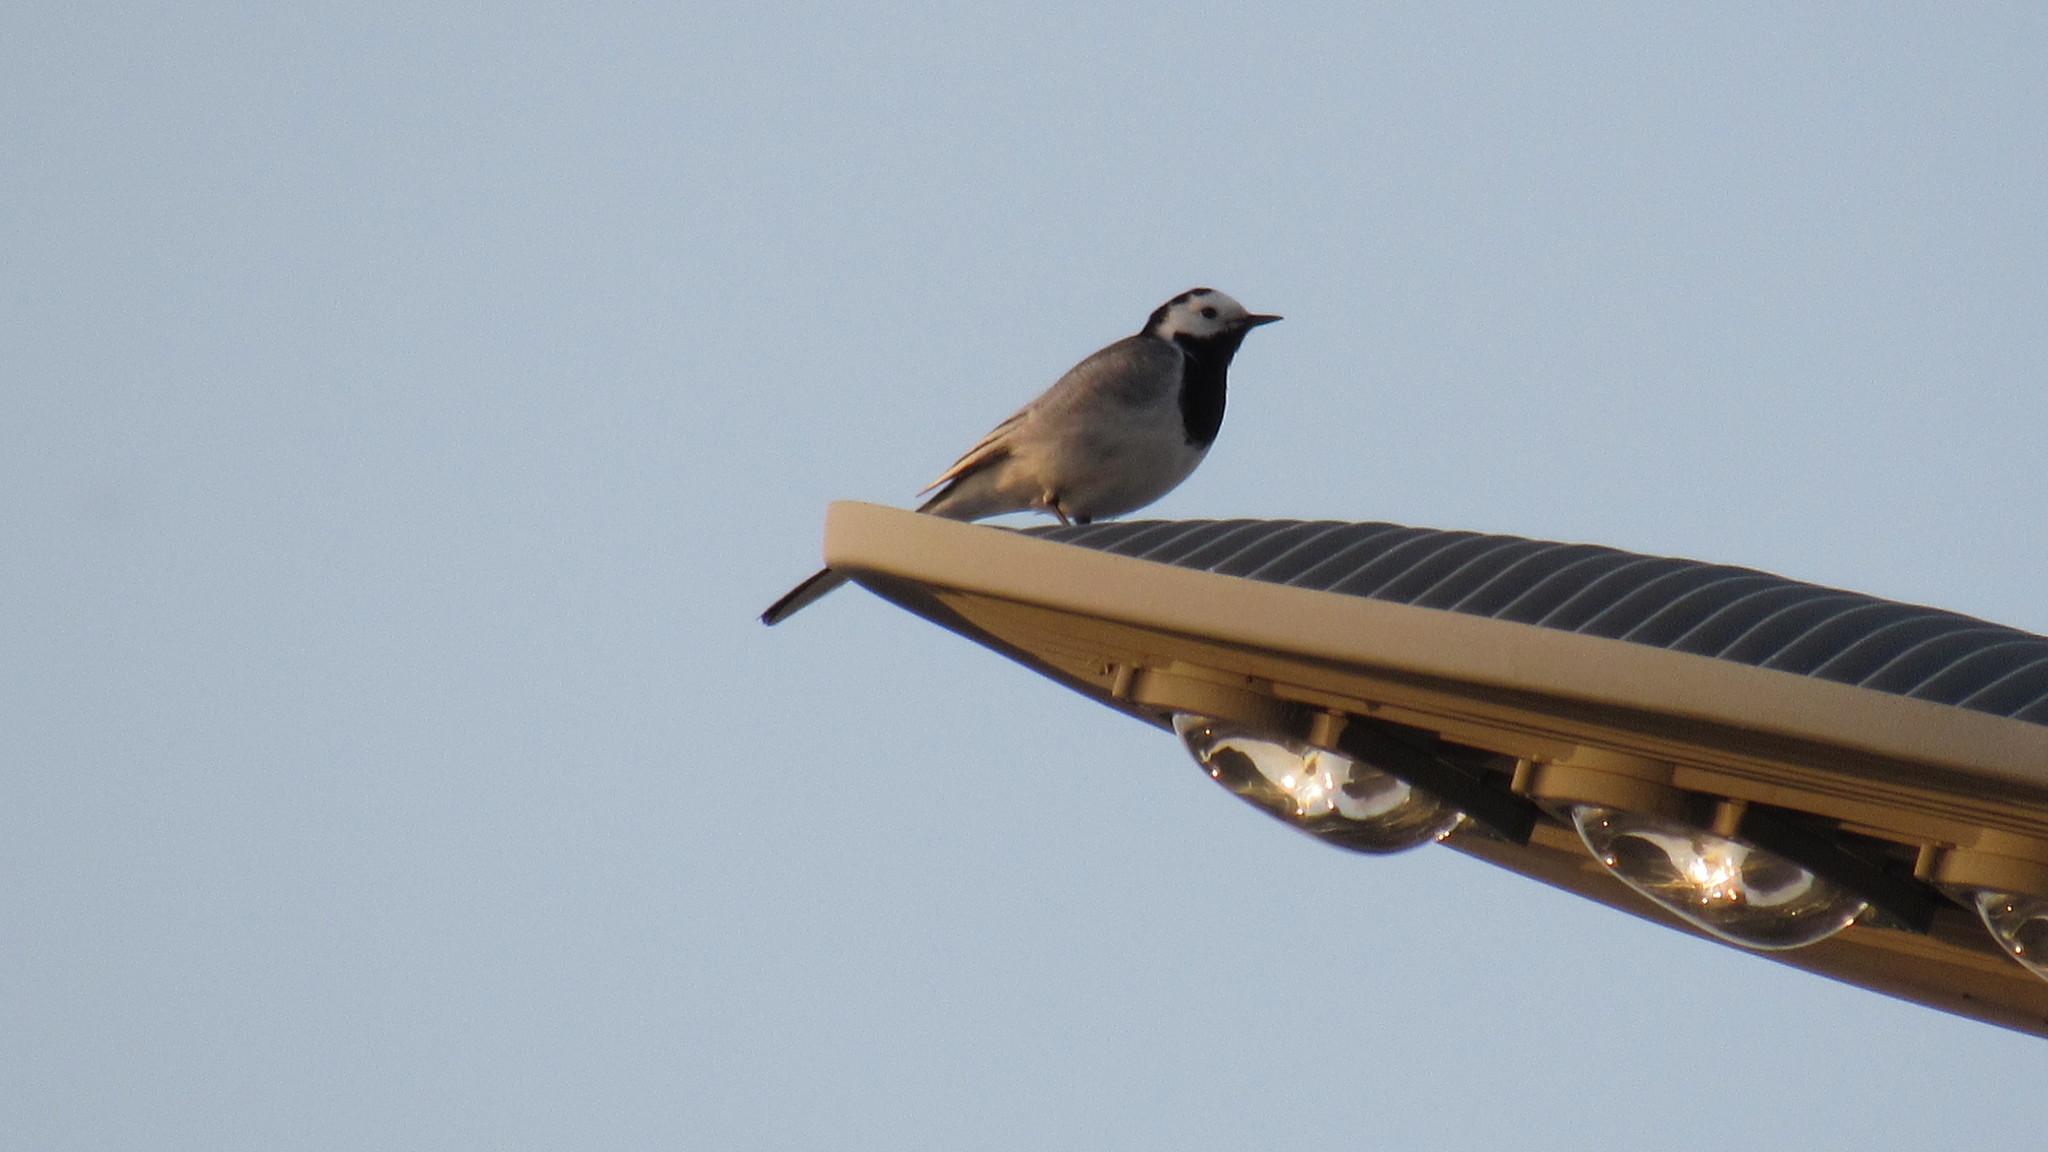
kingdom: Animalia
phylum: Chordata
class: Aves
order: Passeriformes
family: Motacillidae
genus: Motacilla
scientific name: Motacilla alba
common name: White wagtail
